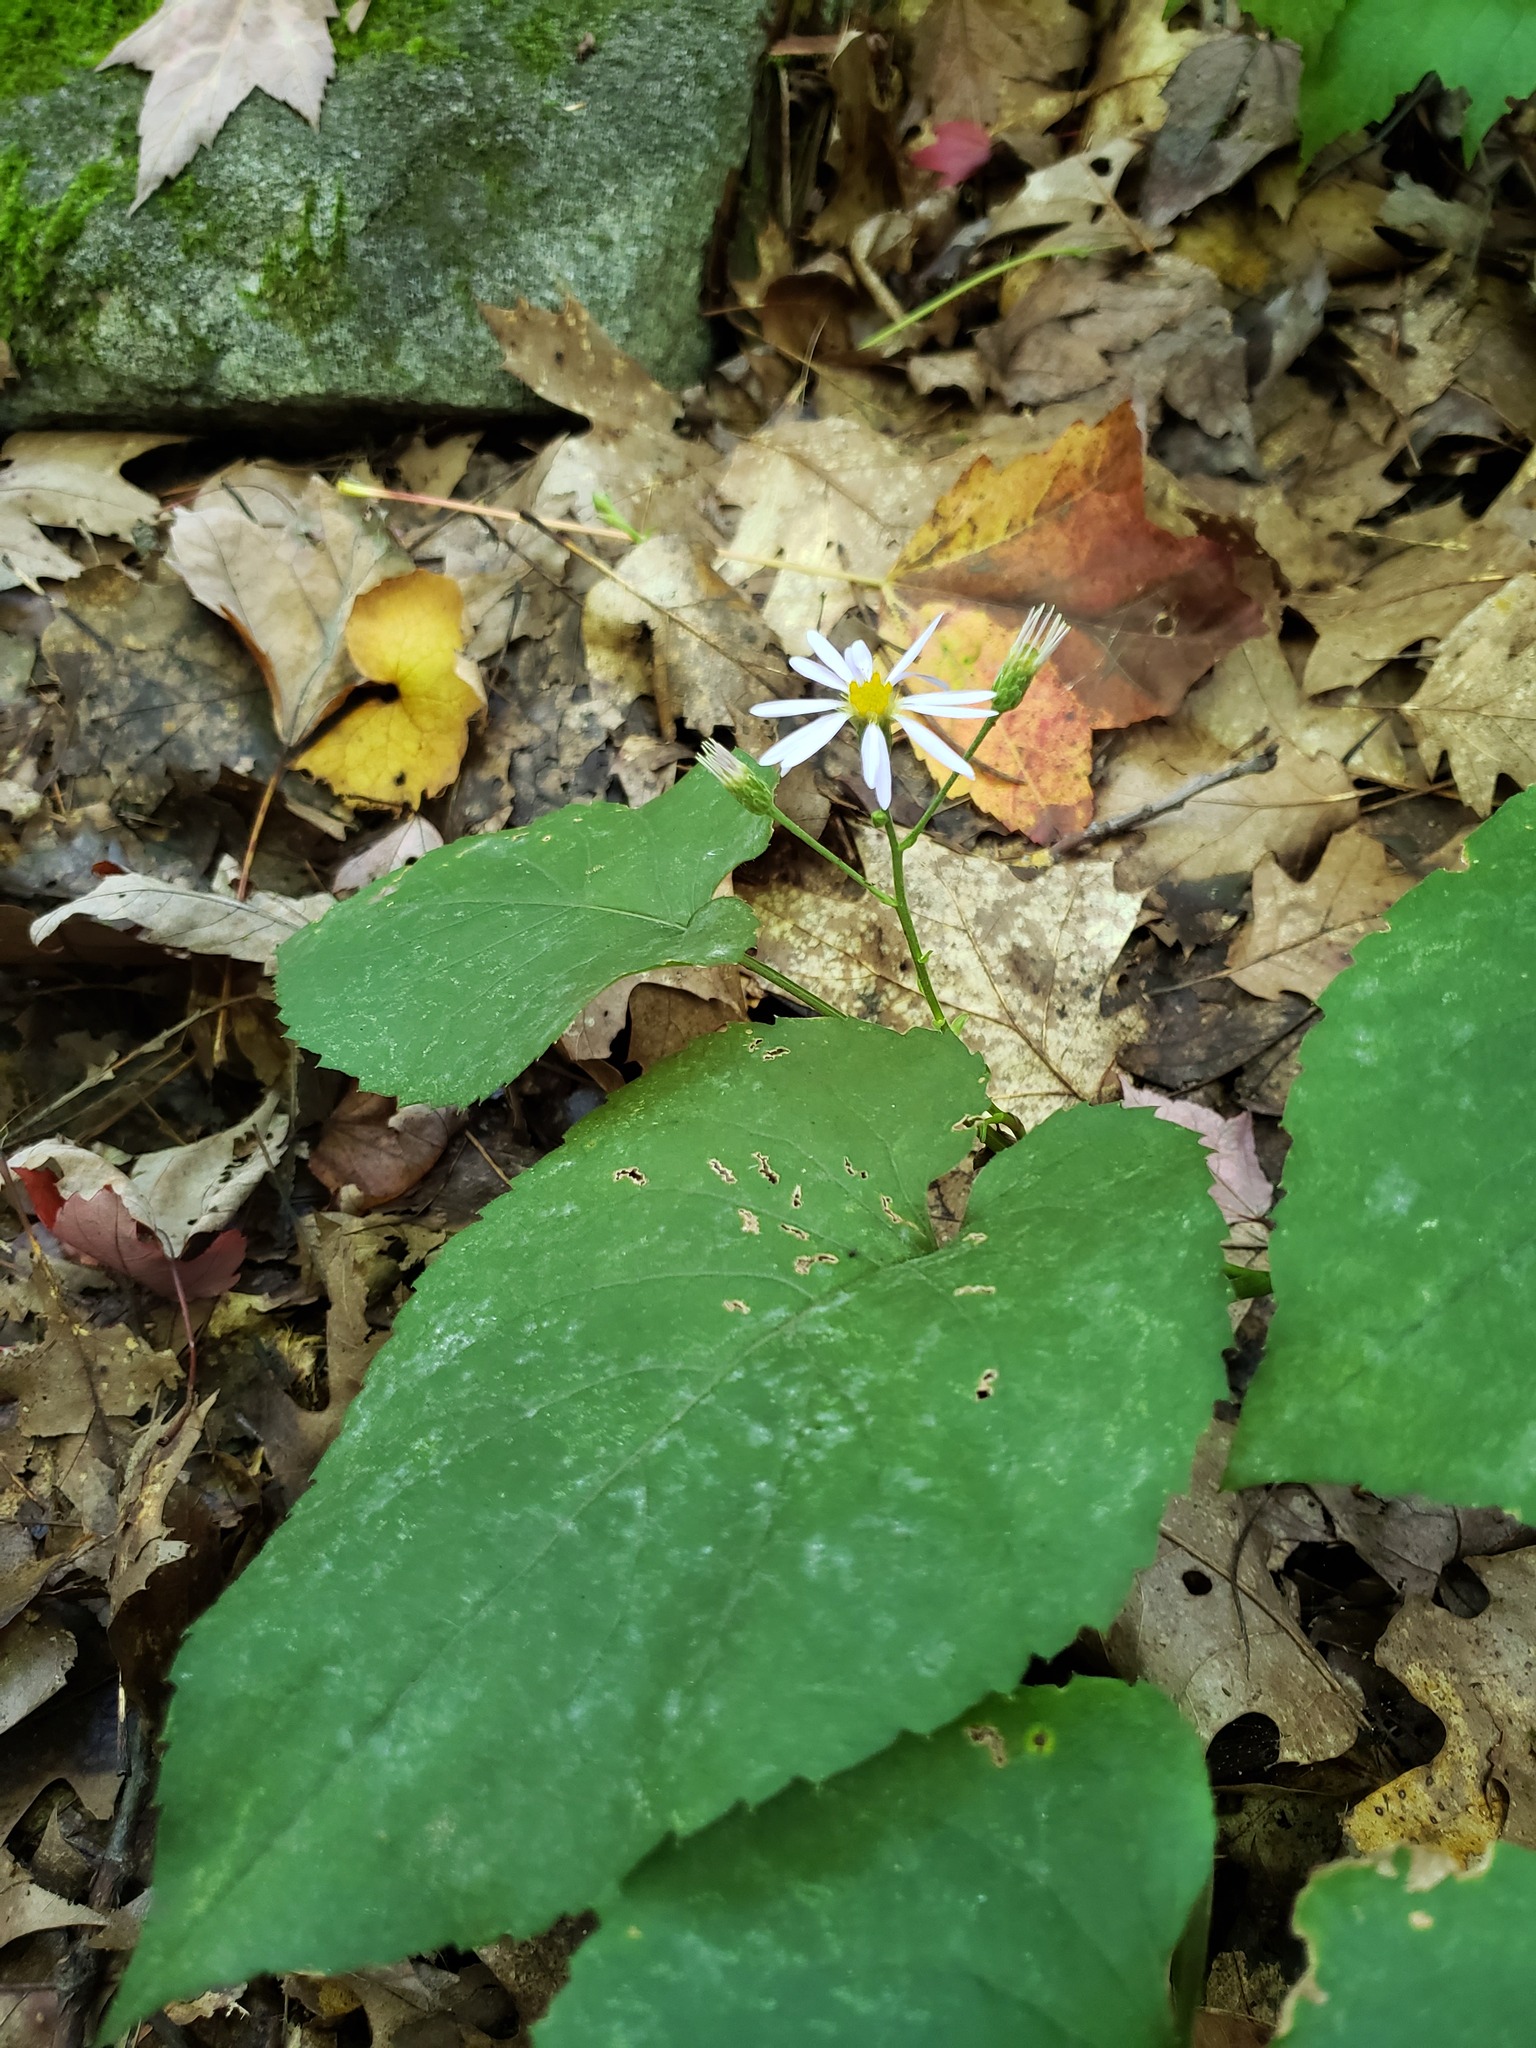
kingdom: Plantae
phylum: Tracheophyta
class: Magnoliopsida
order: Asterales
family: Asteraceae
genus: Eurybia
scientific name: Eurybia macrophylla
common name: Big-leaved aster
